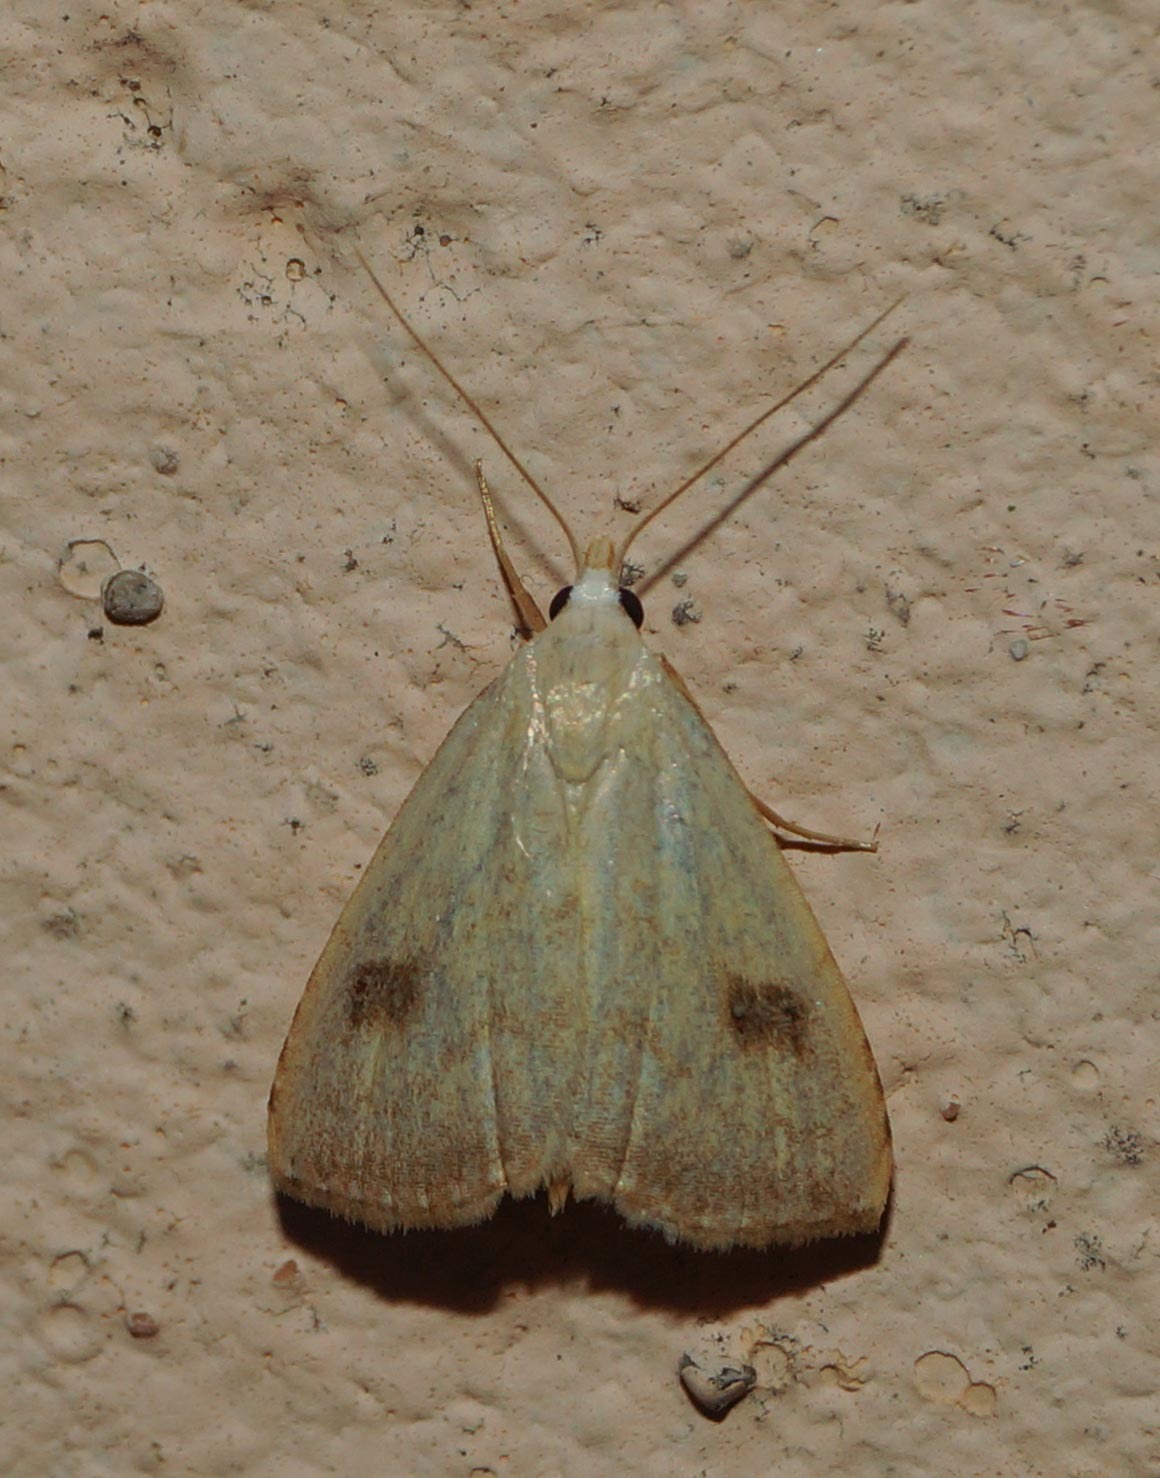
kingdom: Animalia
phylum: Arthropoda
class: Insecta
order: Lepidoptera
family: Erebidae
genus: Rivula
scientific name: Rivula sericealis
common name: Straw dot
